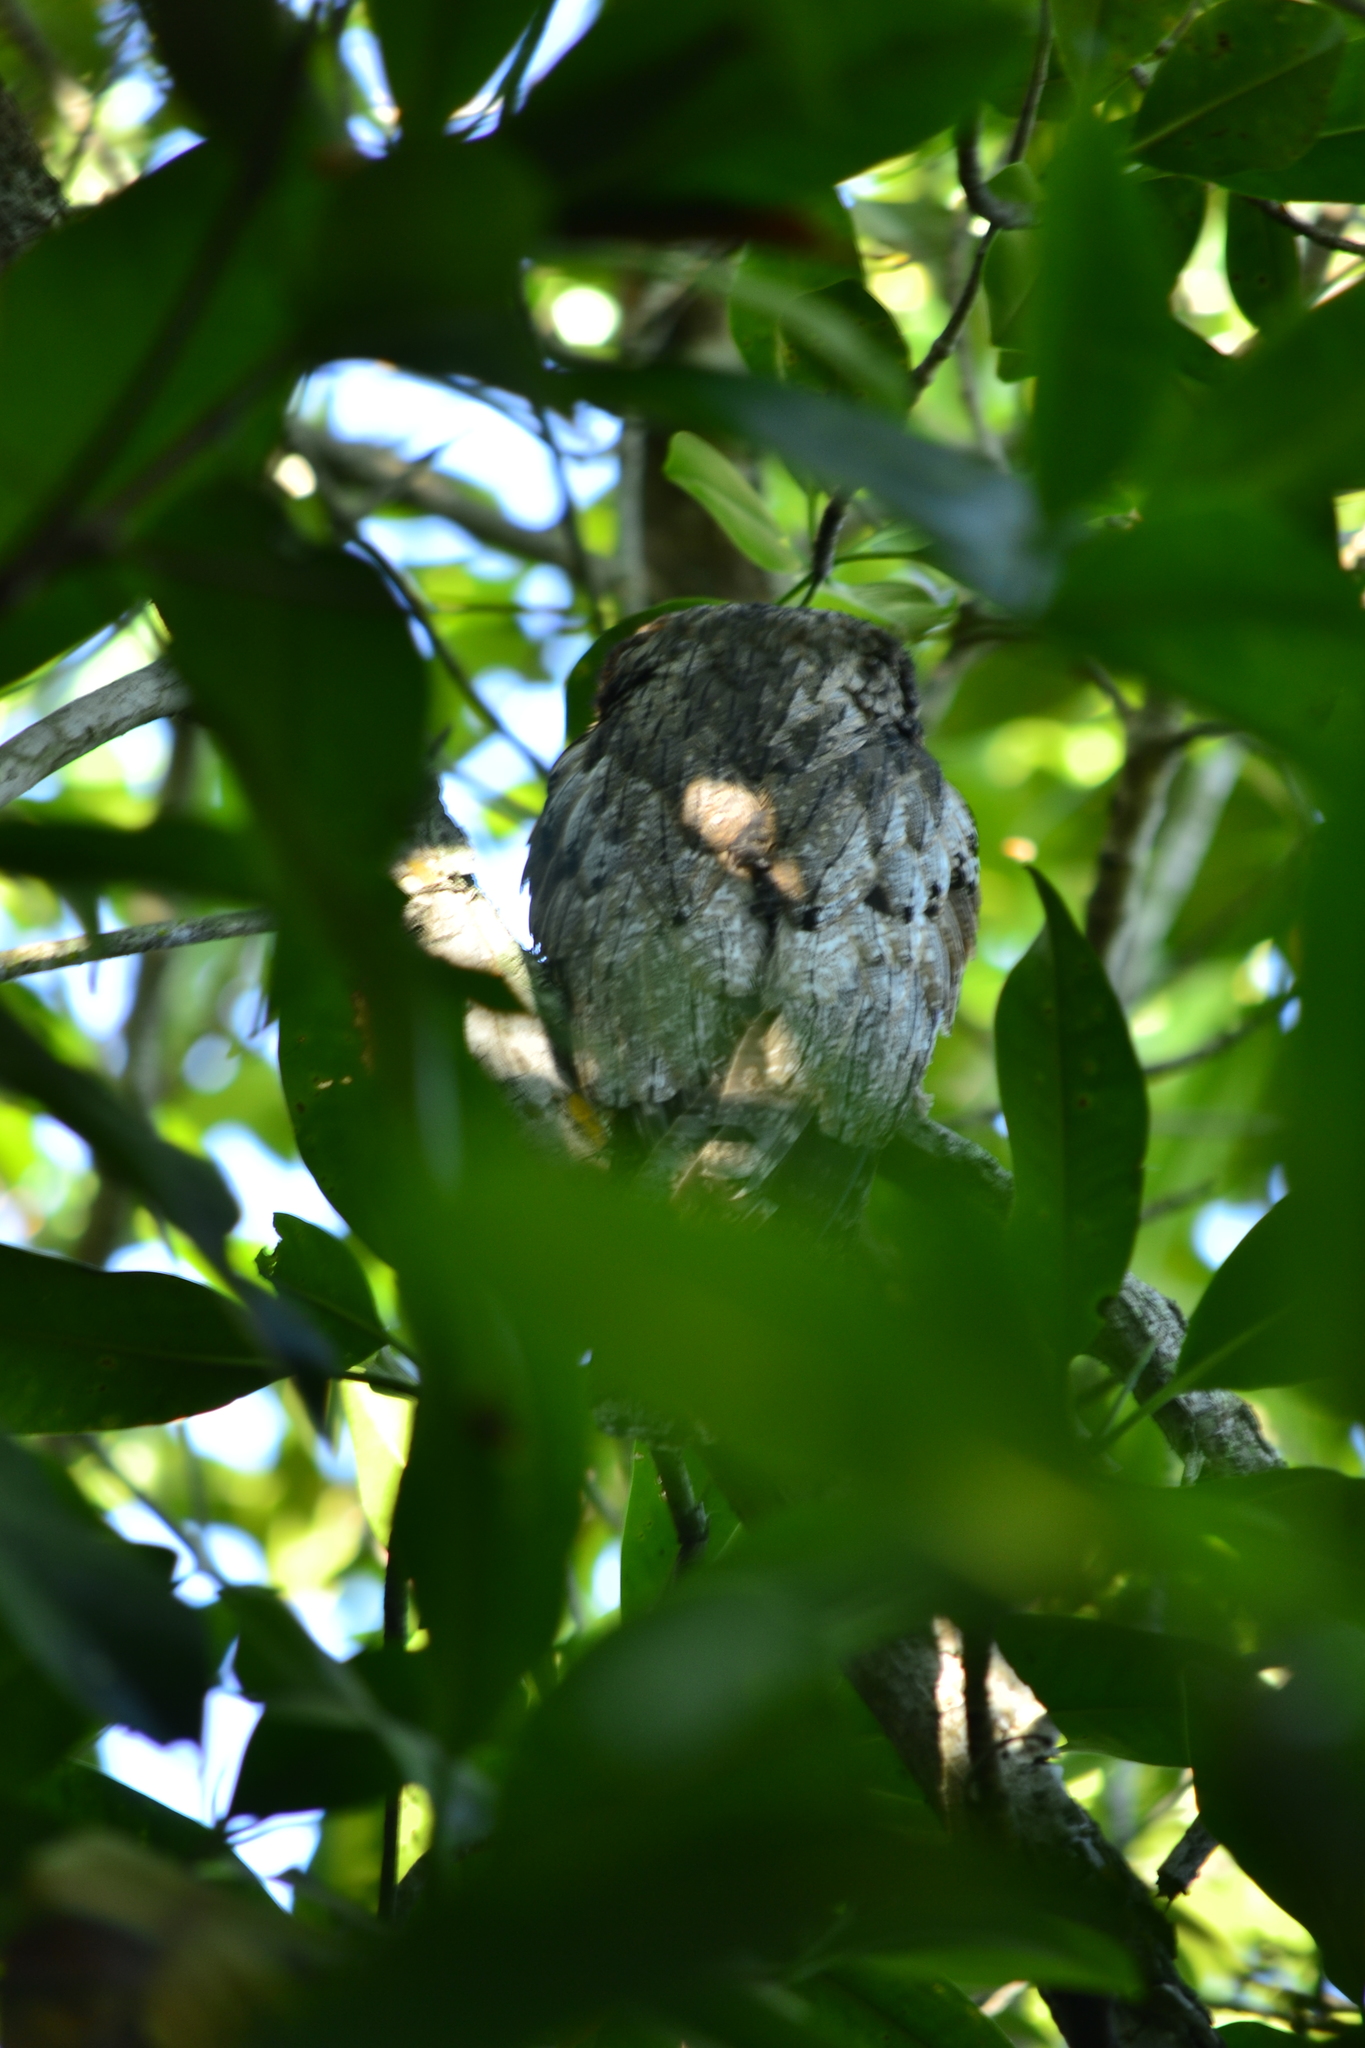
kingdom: Animalia
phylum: Chordata
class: Aves
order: Nyctibiiformes
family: Nyctibiidae
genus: Nyctibius
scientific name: Nyctibius jamaicensis
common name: Northern potoo
